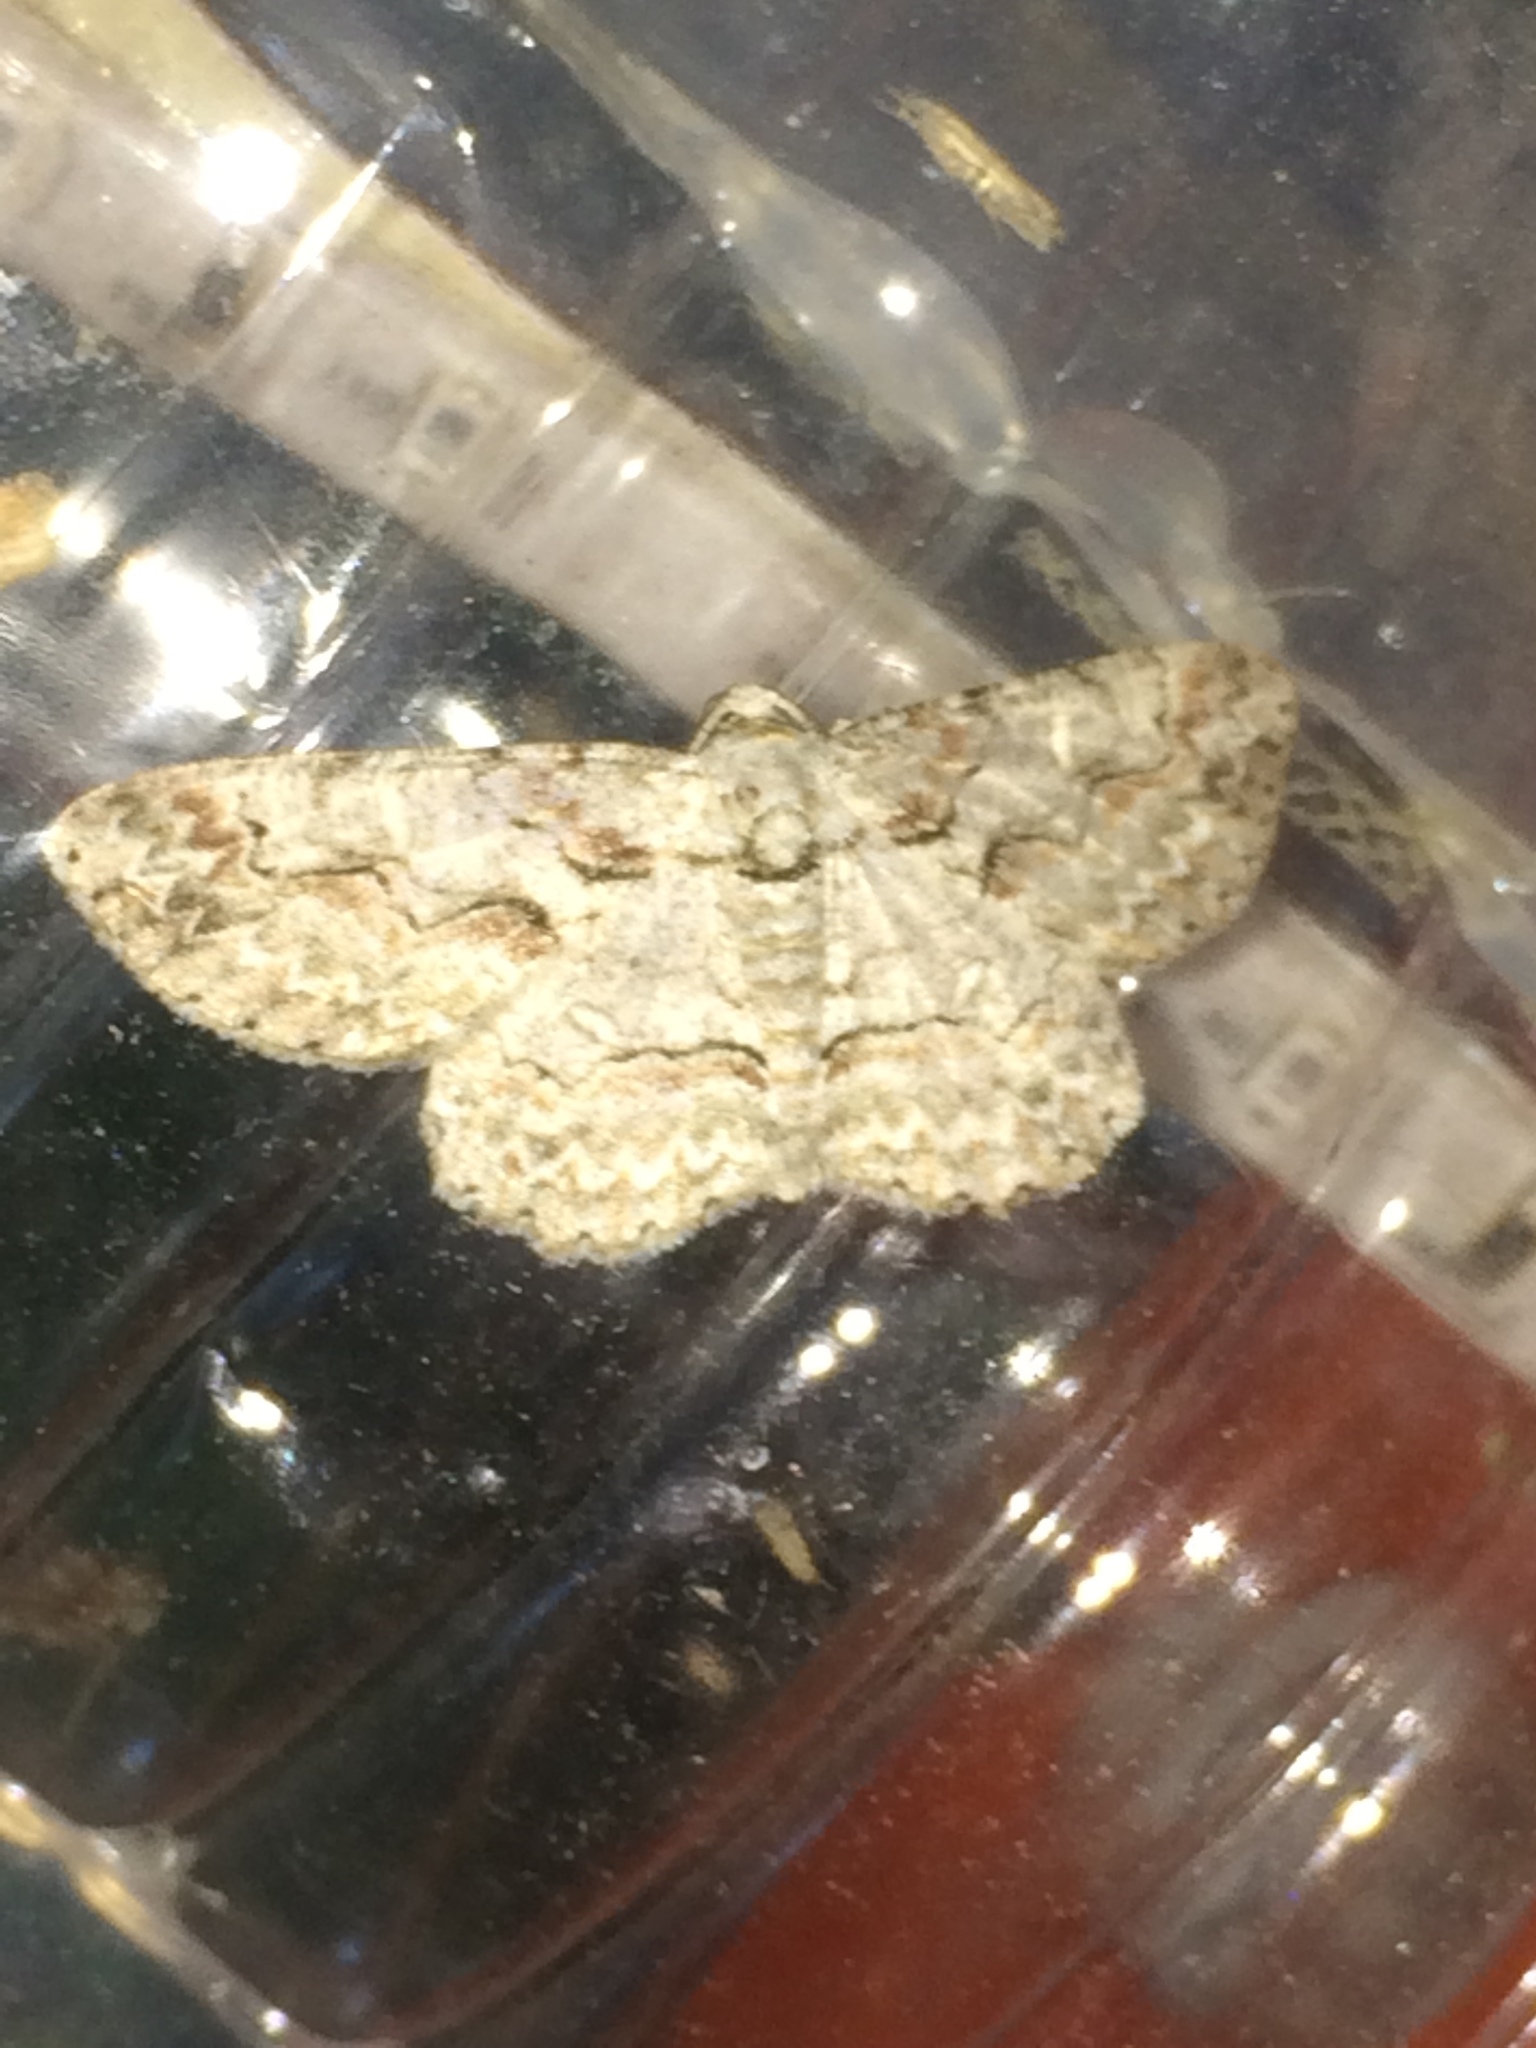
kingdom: Animalia
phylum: Arthropoda
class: Insecta
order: Lepidoptera
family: Geometridae
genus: Iridopsis
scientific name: Iridopsis defectaria
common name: Brown-shaded gray
